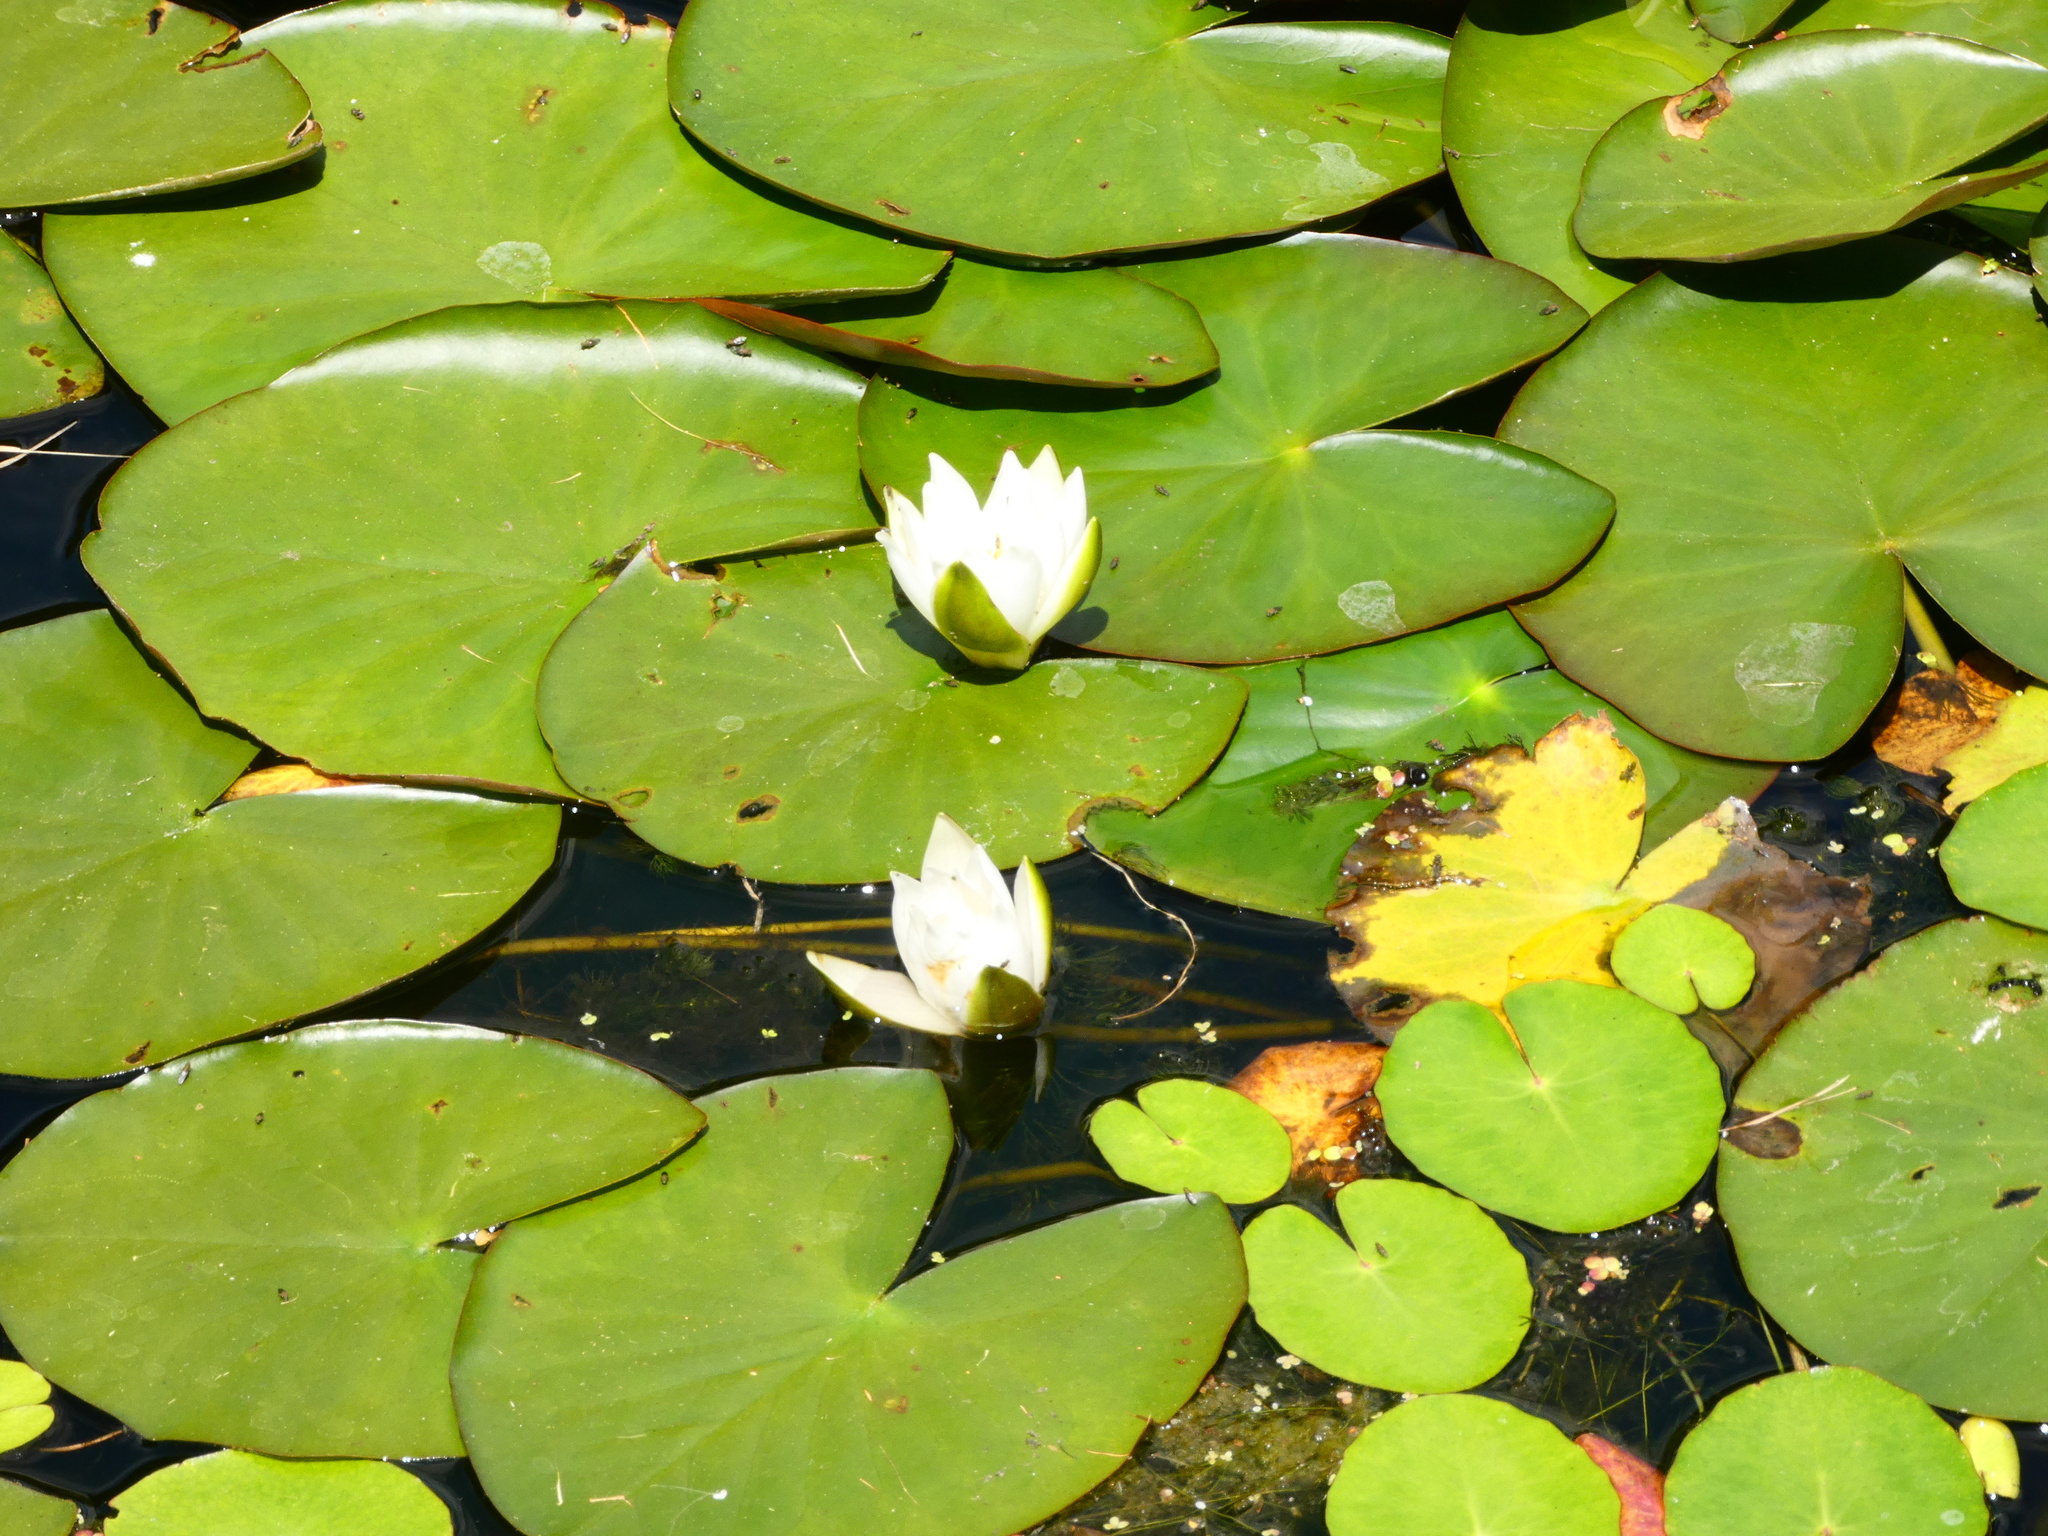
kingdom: Plantae
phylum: Tracheophyta
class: Magnoliopsida
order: Nymphaeales
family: Nymphaeaceae
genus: Nymphaea
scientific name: Nymphaea alba
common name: White water-lily
